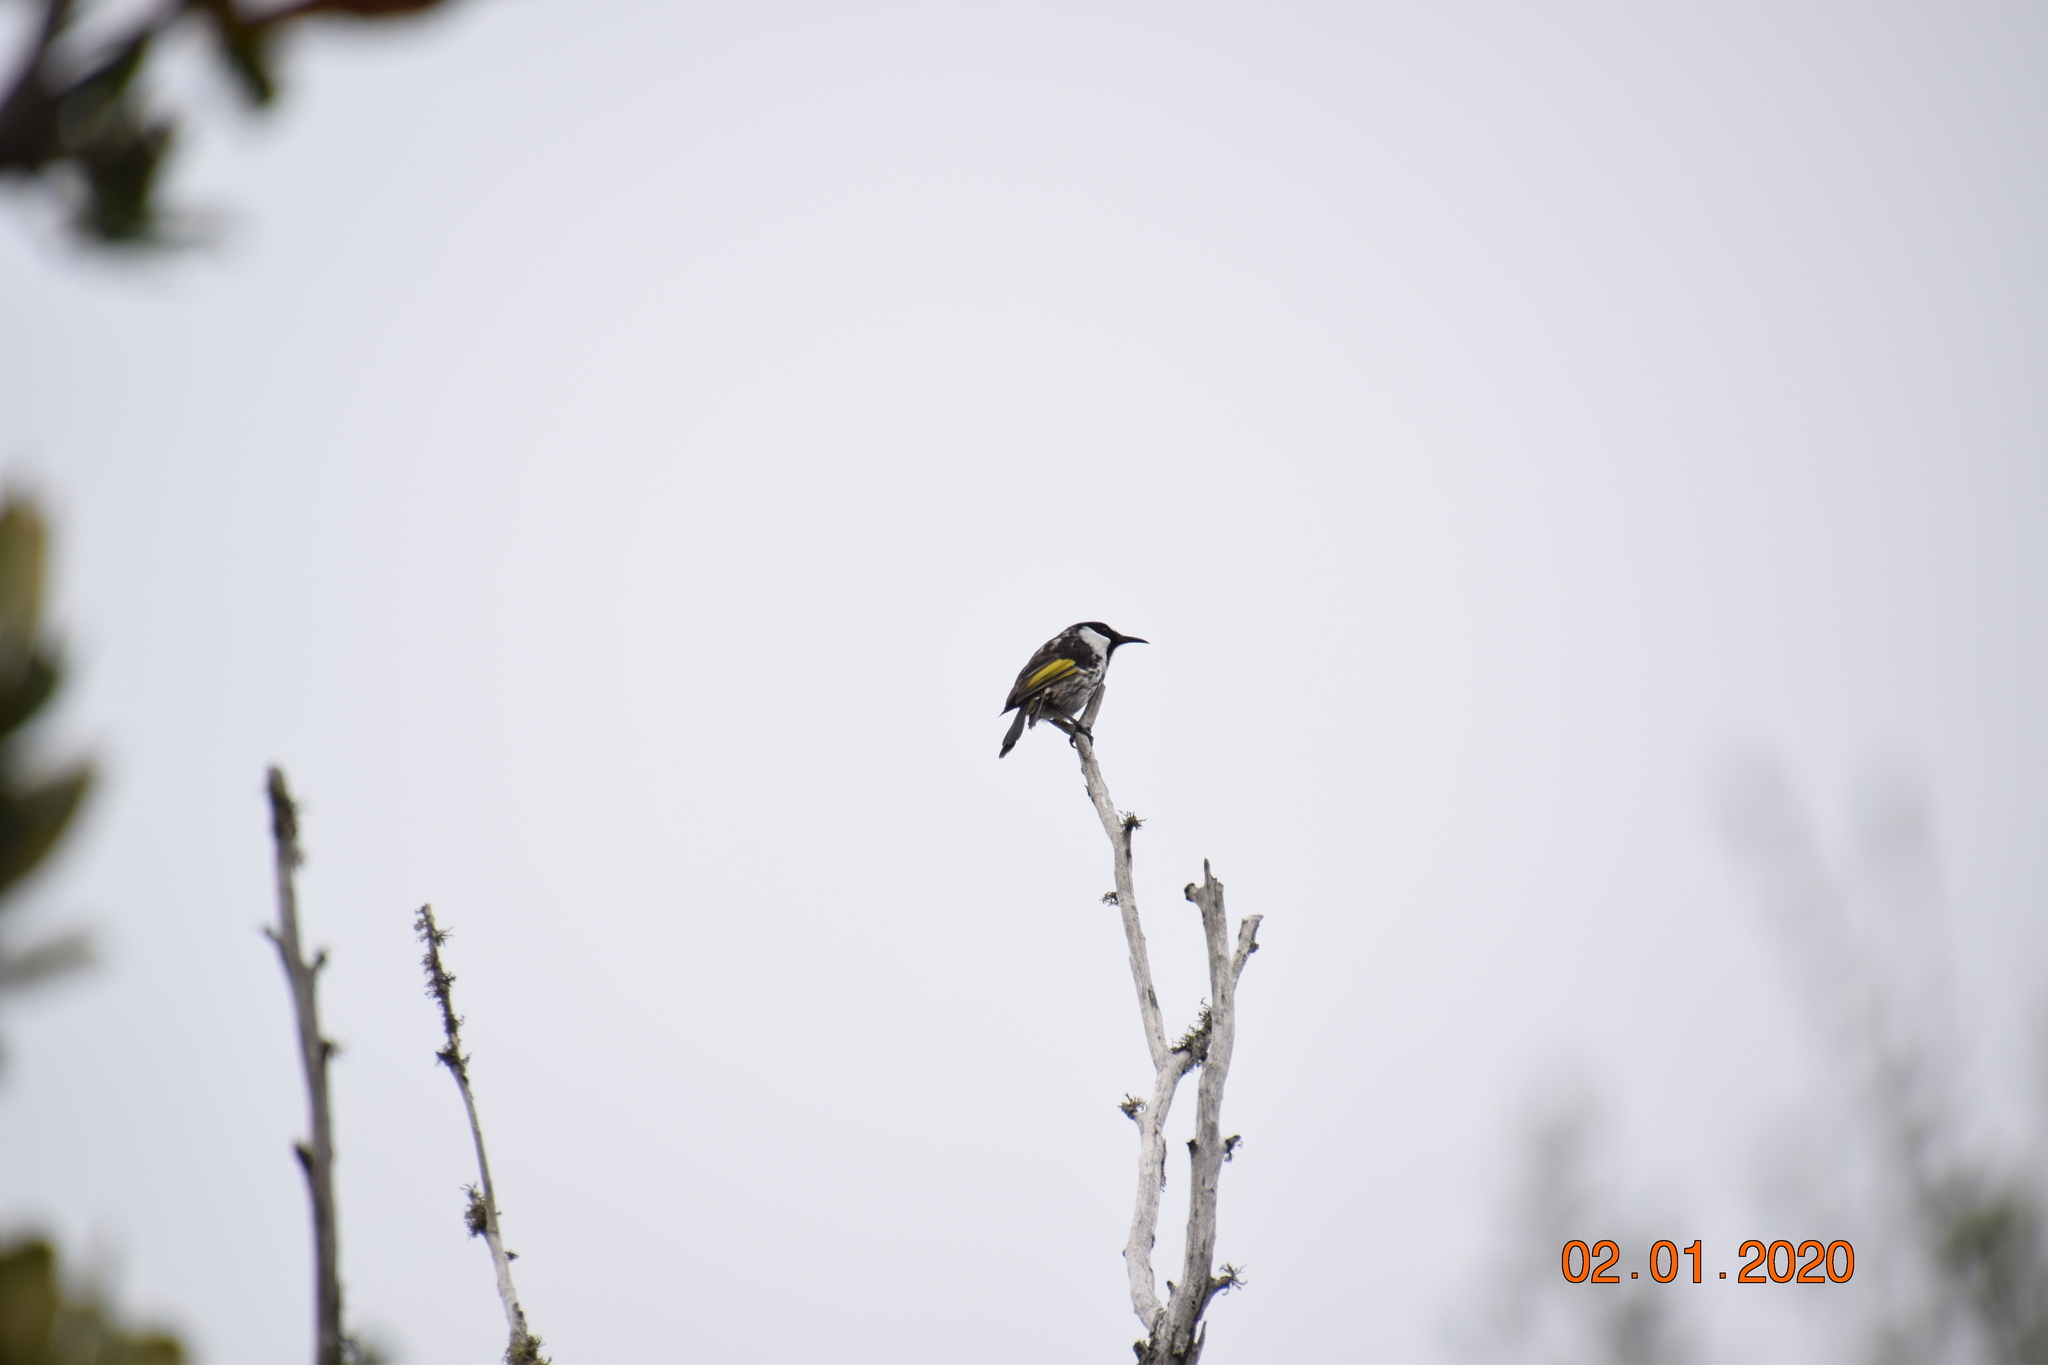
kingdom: Animalia
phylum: Chordata
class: Aves
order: Passeriformes
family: Meliphagidae
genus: Phylidonyris
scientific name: Phylidonyris niger
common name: White-cheeked honeyeater
